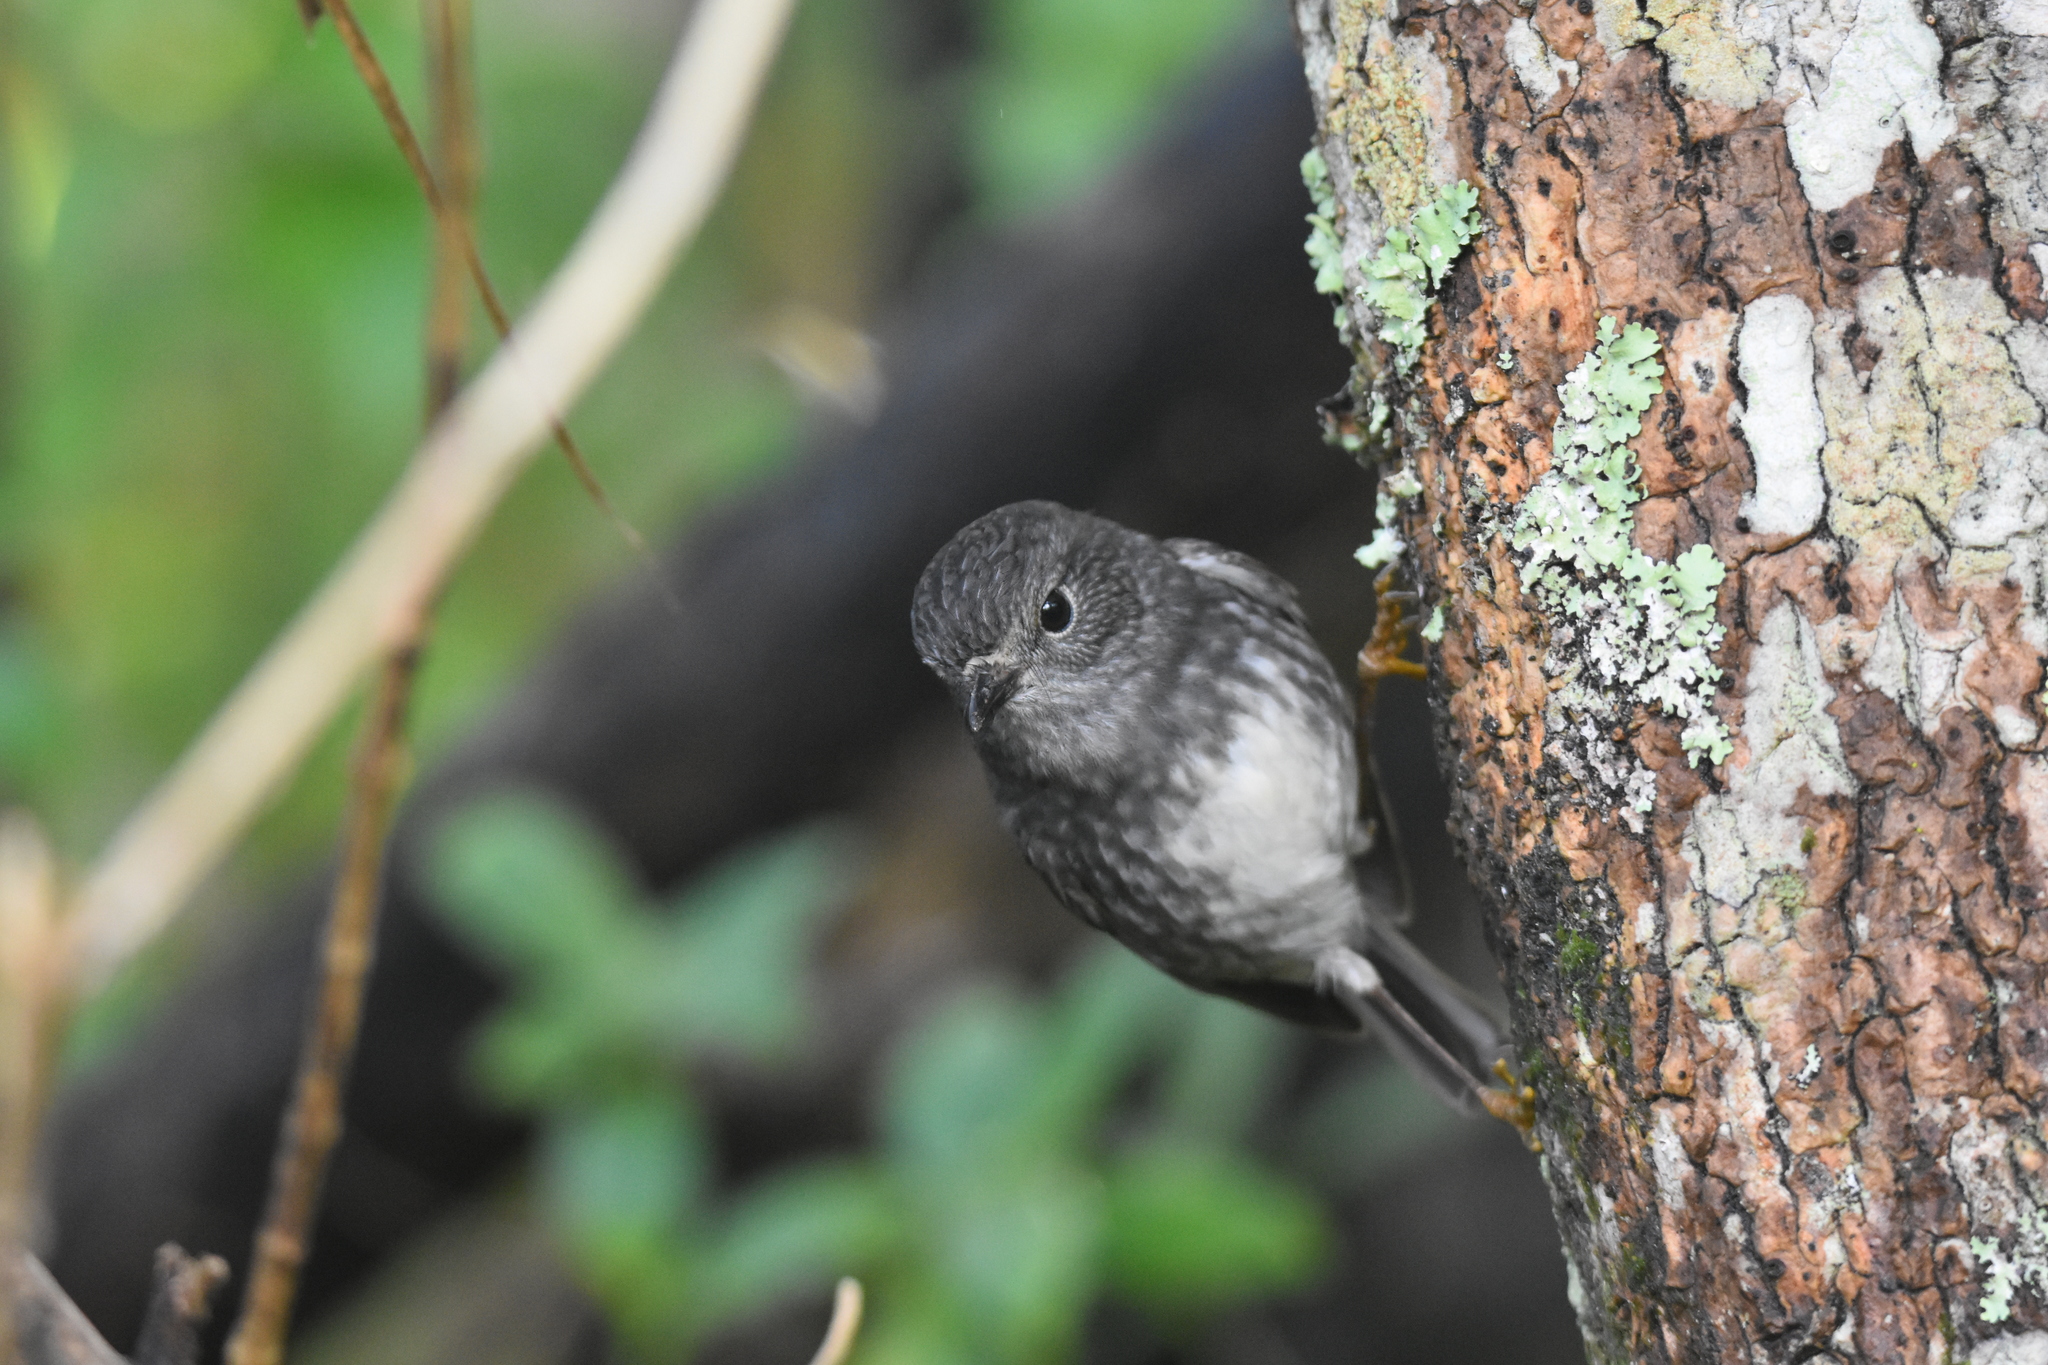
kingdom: Animalia
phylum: Chordata
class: Aves
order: Passeriformes
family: Petroicidae
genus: Petroica
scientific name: Petroica australis
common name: New zealand robin
